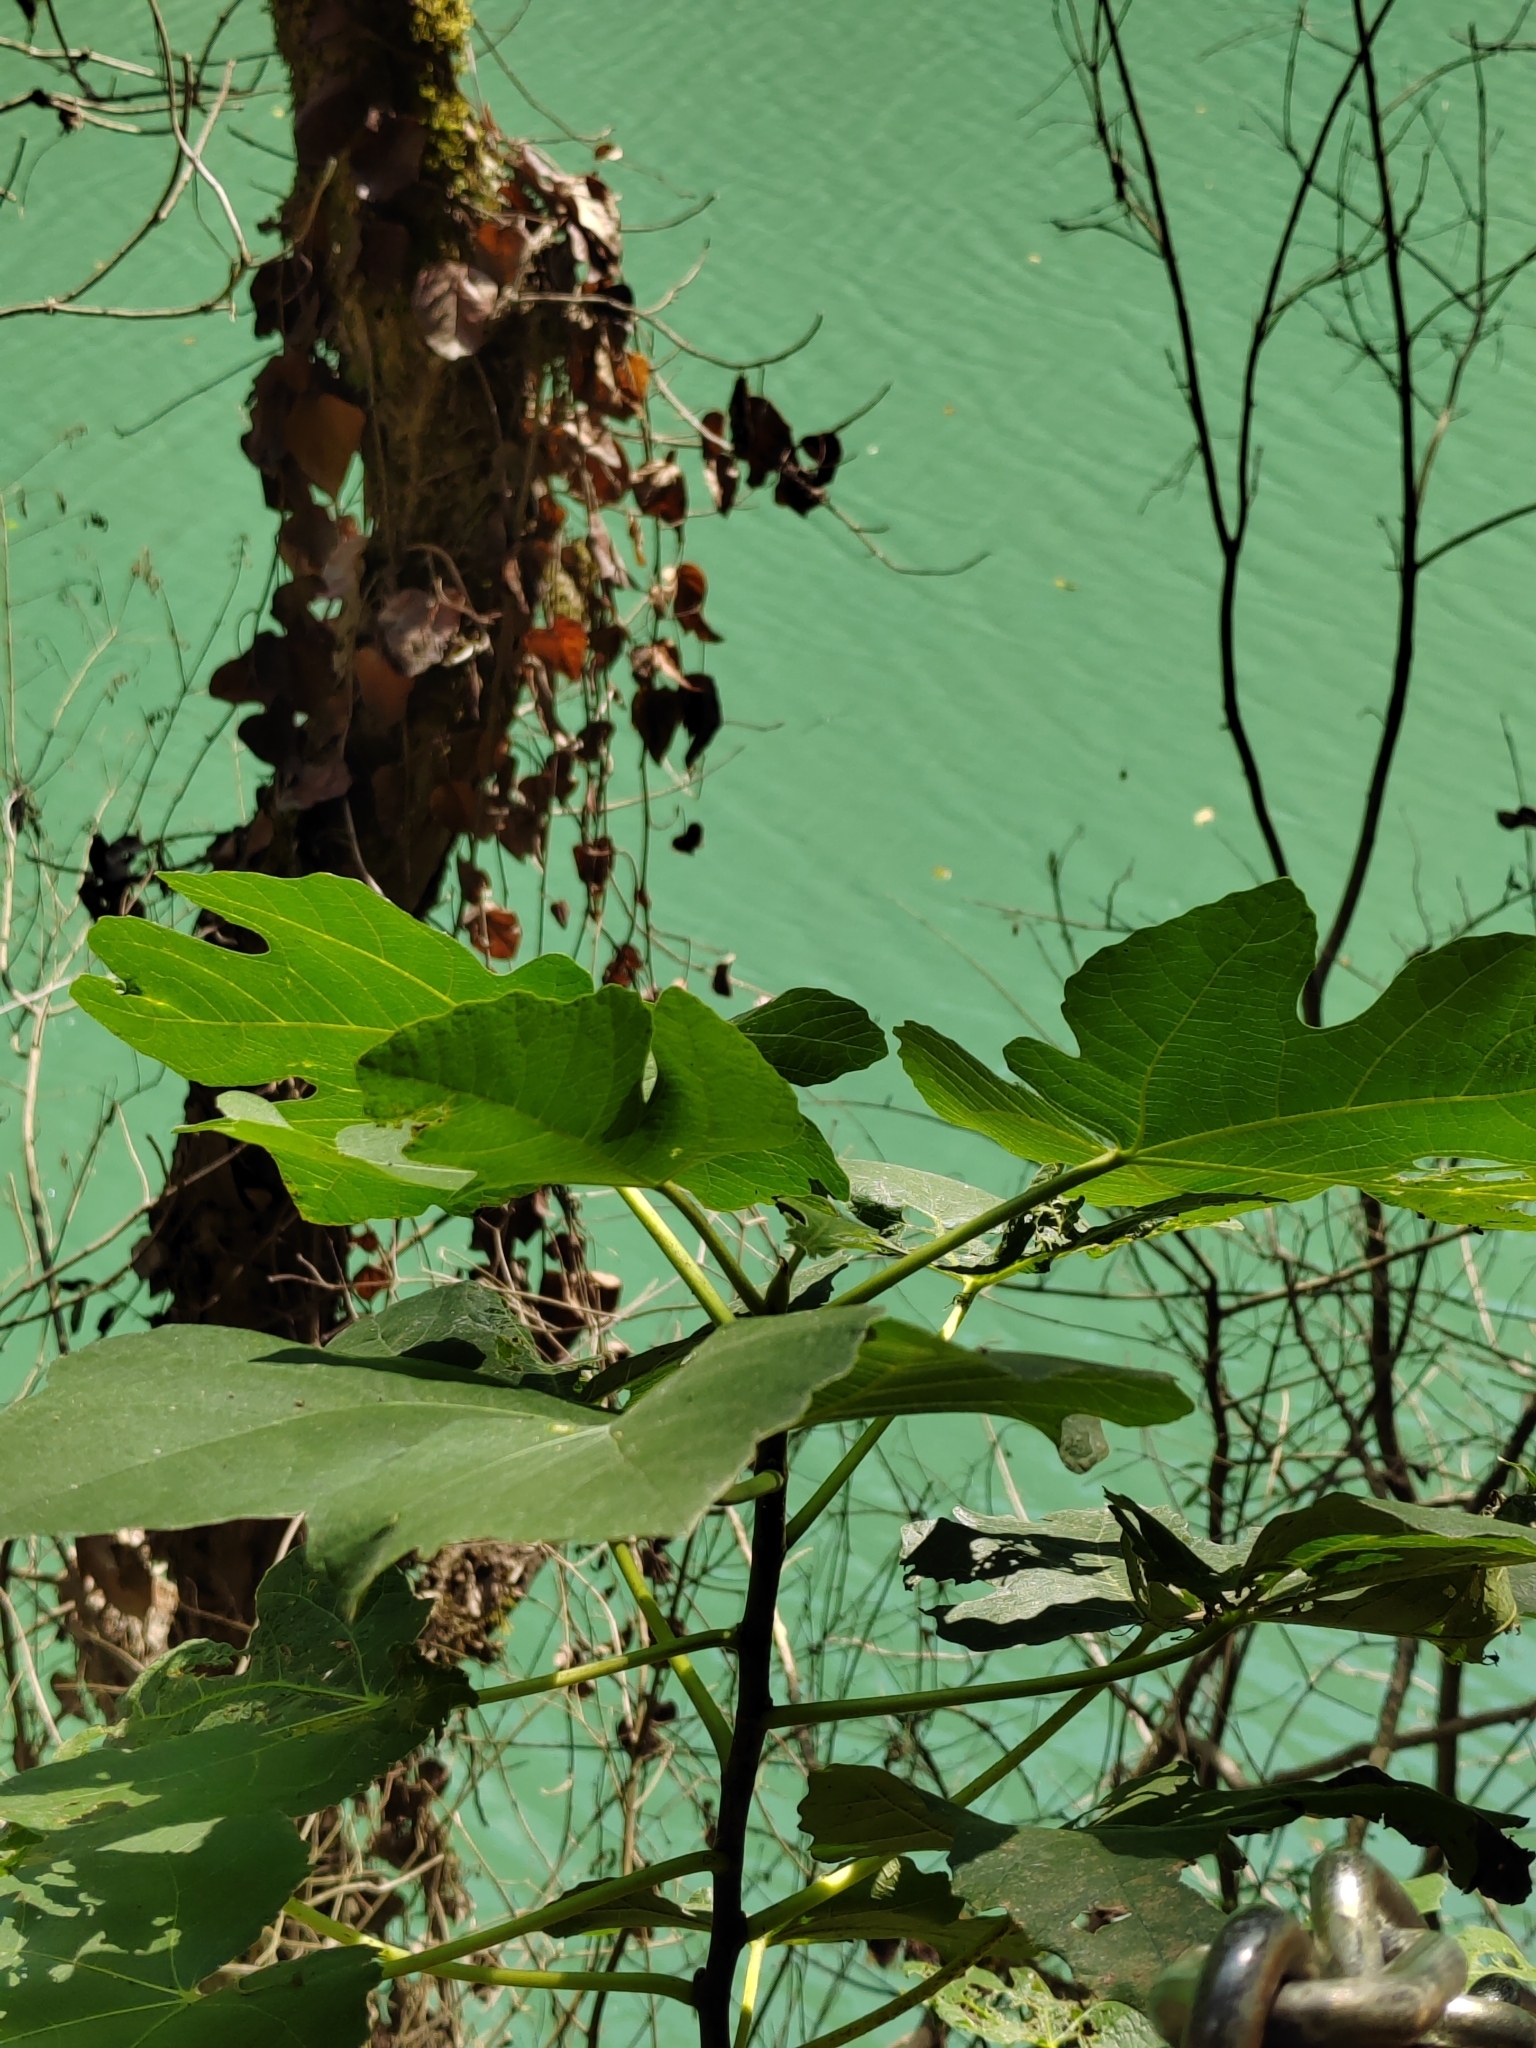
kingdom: Plantae
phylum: Tracheophyta
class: Magnoliopsida
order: Rosales
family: Moraceae
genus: Ficus
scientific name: Ficus carica
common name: Fig
